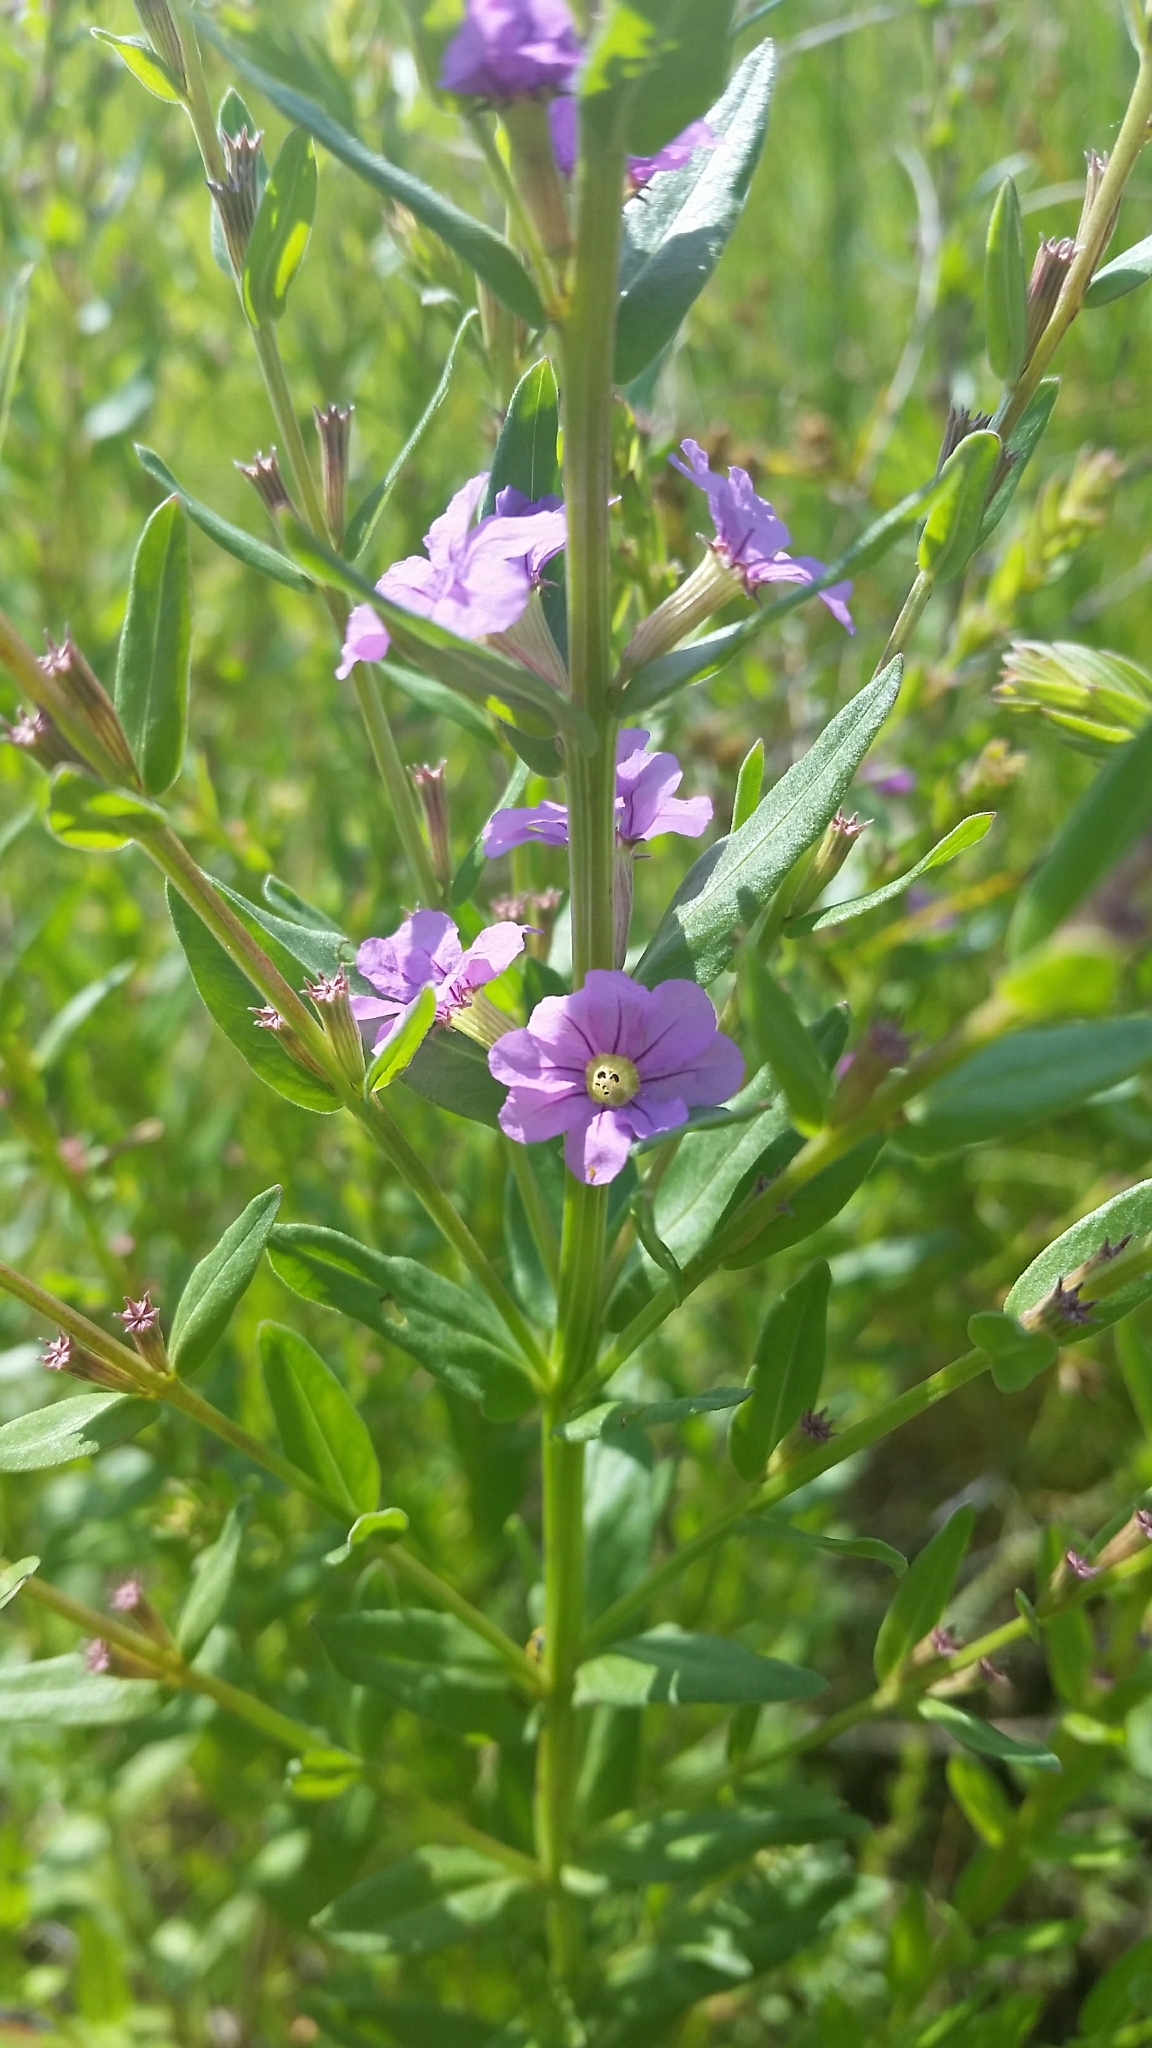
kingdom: Plantae
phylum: Tracheophyta
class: Magnoliopsida
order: Myrtales
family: Lythraceae
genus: Lythrum
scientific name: Lythrum alatum
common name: Winged loosestrife
